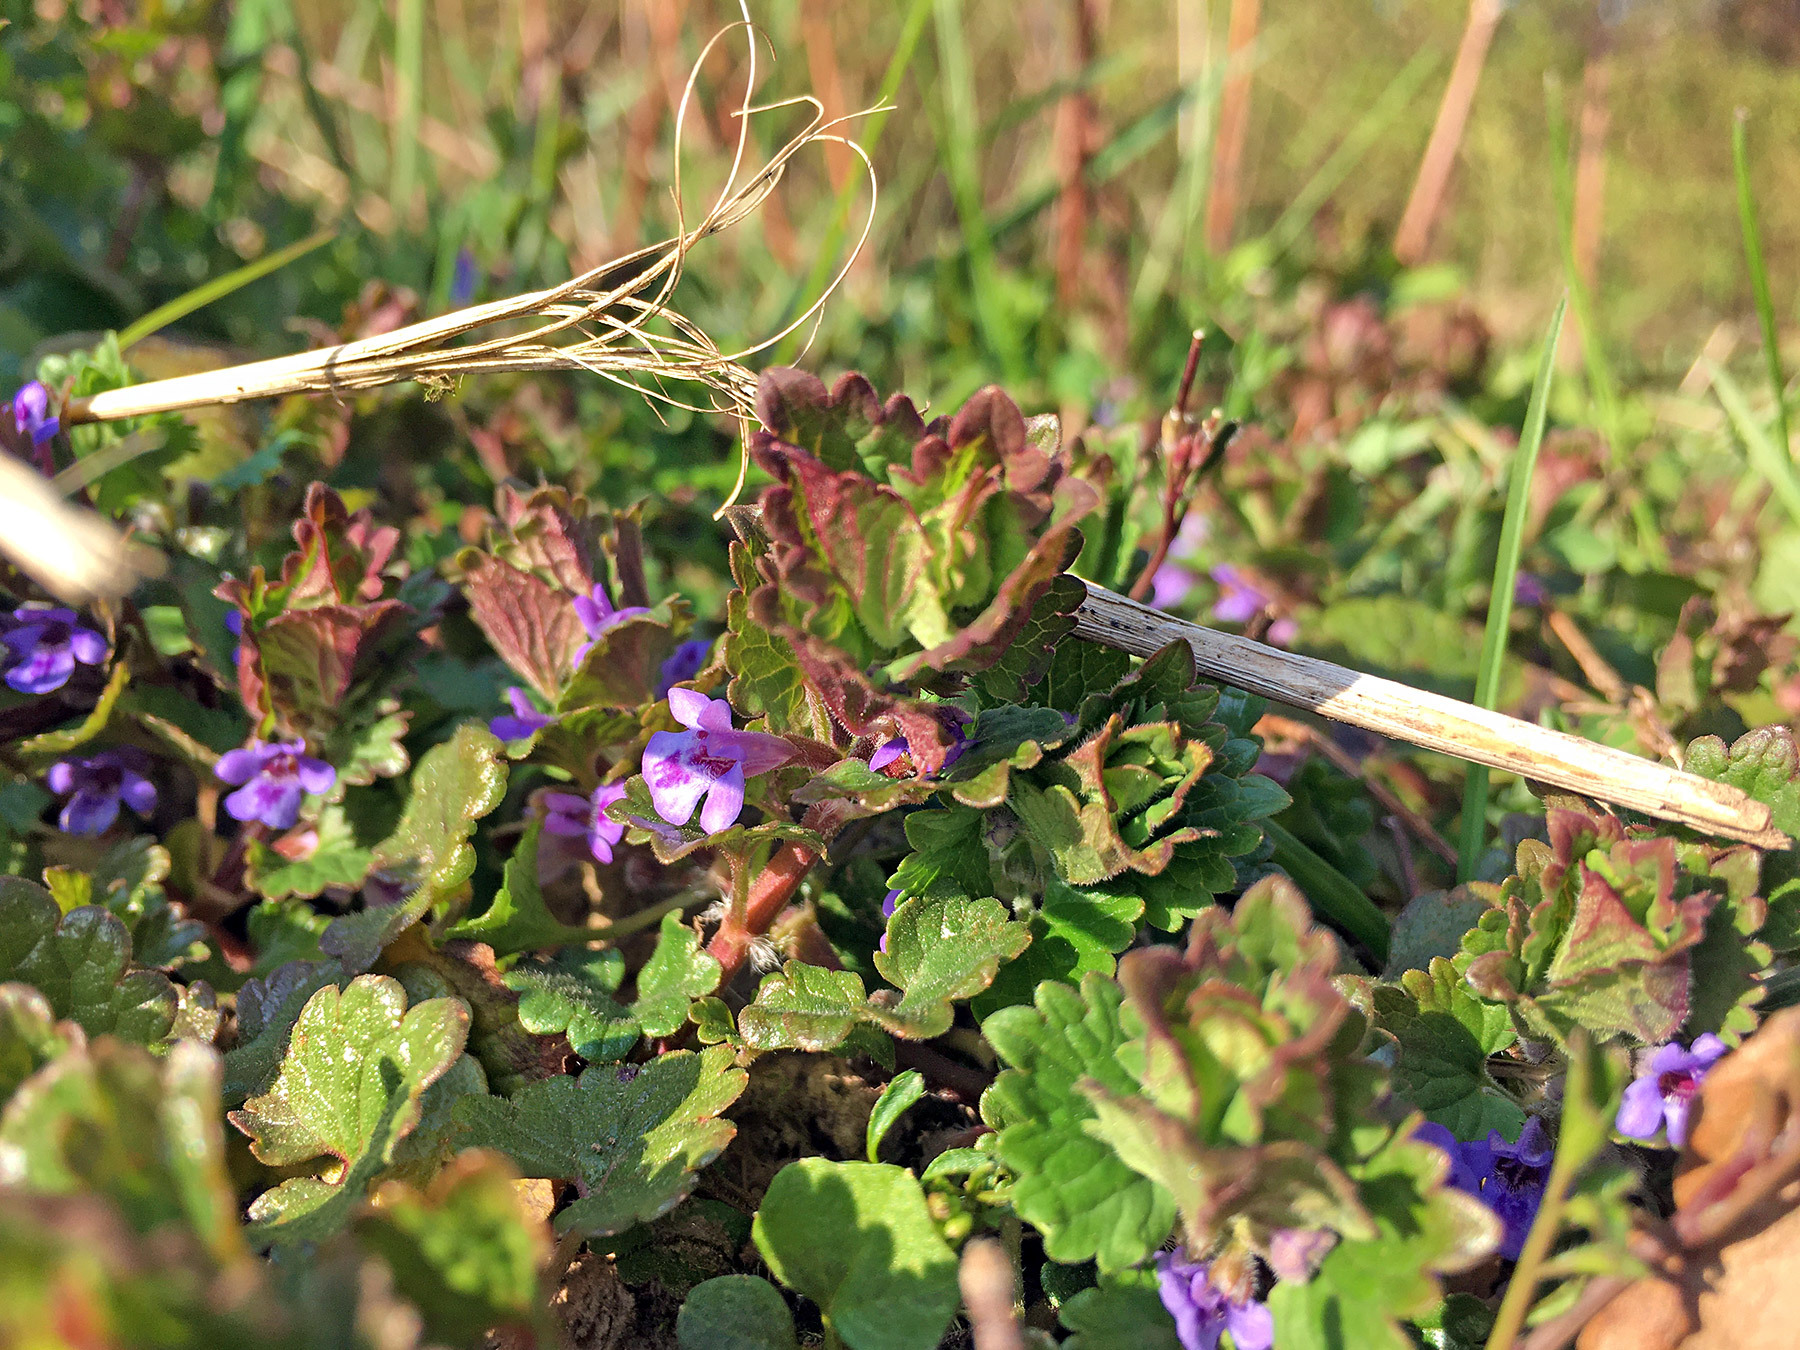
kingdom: Plantae
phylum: Tracheophyta
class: Magnoliopsida
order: Lamiales
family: Lamiaceae
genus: Glechoma
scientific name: Glechoma hederacea
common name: Ground ivy
